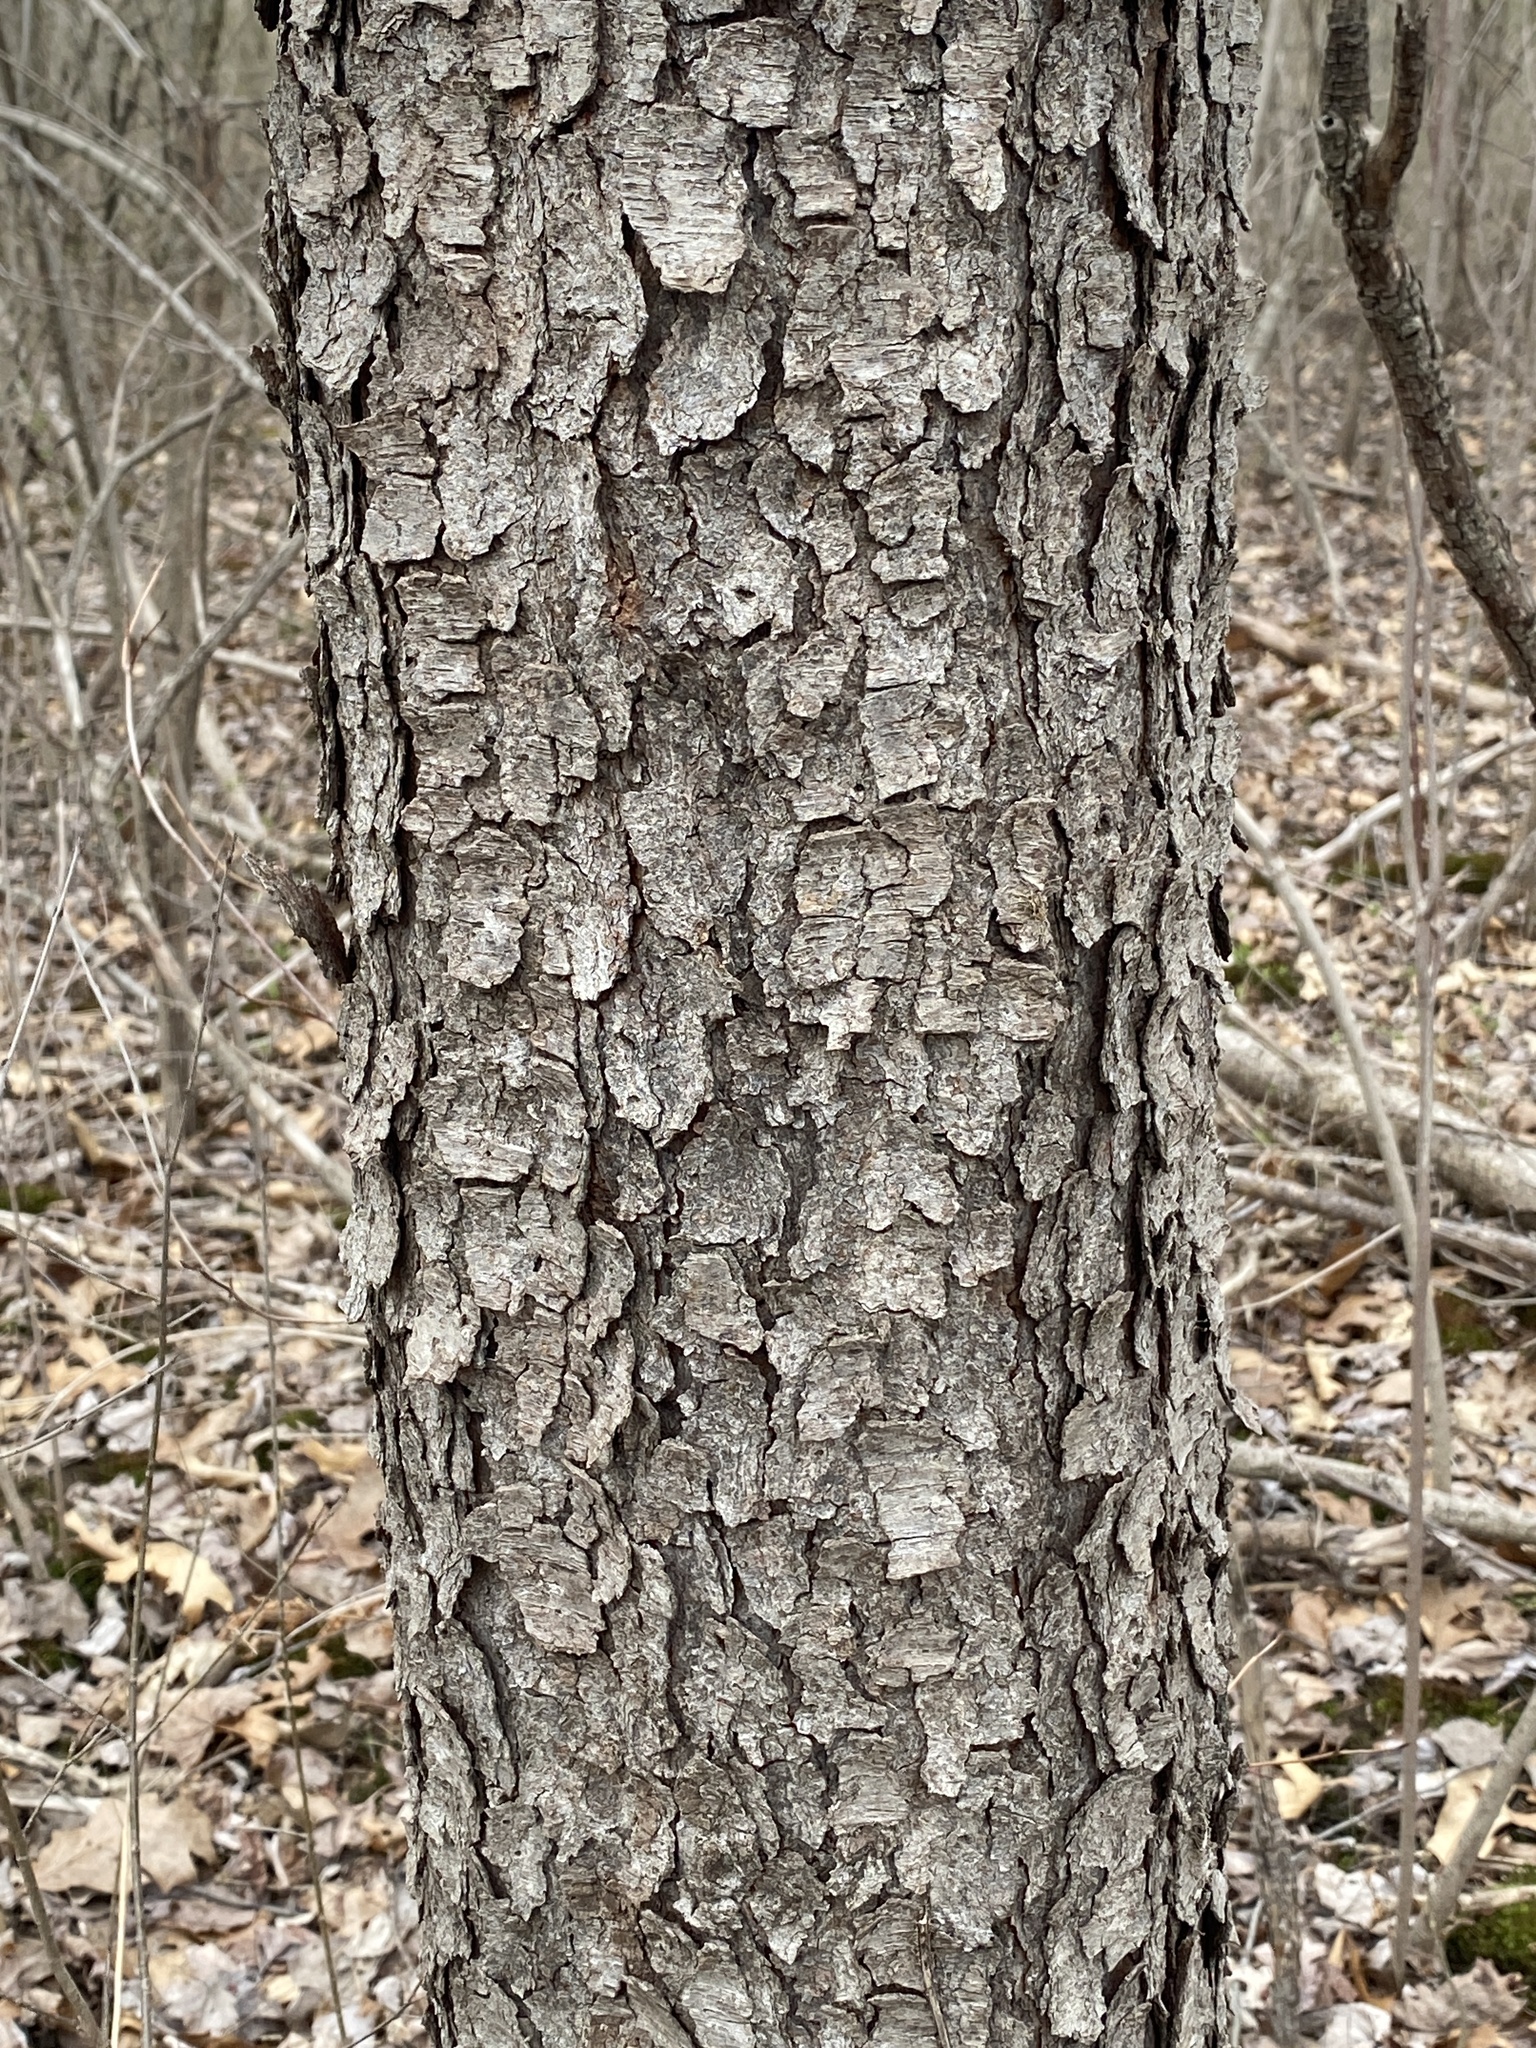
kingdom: Plantae
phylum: Tracheophyta
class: Magnoliopsida
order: Rosales
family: Rosaceae
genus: Prunus
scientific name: Prunus serotina
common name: Black cherry
